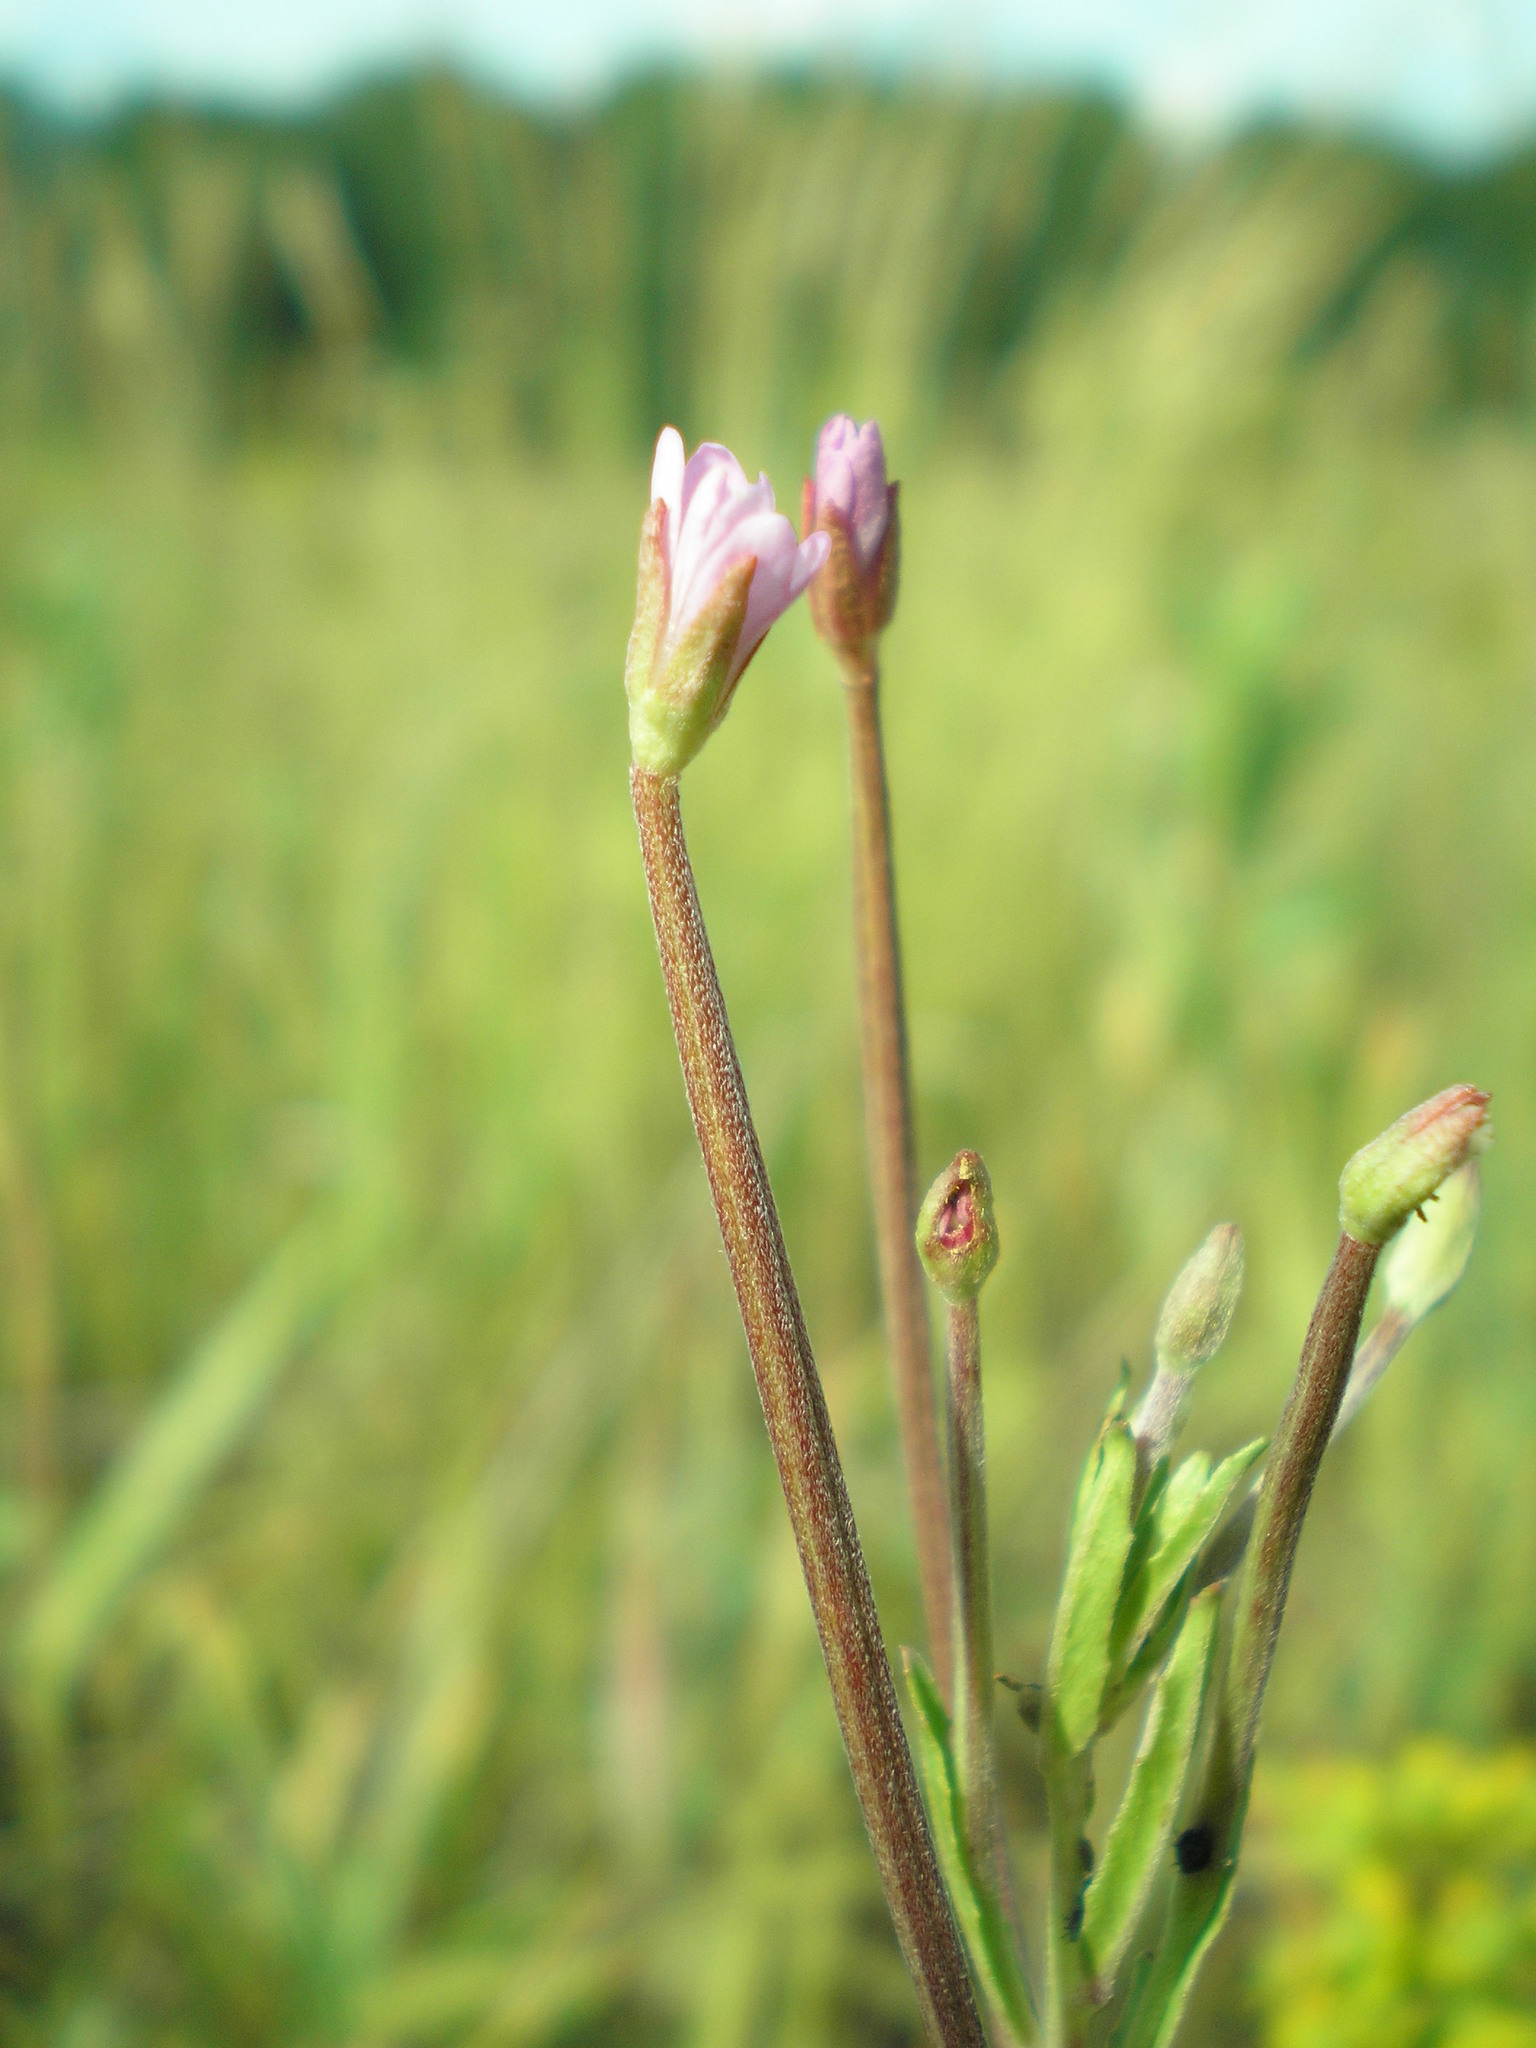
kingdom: Plantae
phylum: Tracheophyta
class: Magnoliopsida
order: Myrtales
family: Onagraceae
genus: Epilobium
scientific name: Epilobium tetragonum
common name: Square-stemmed willowherb
